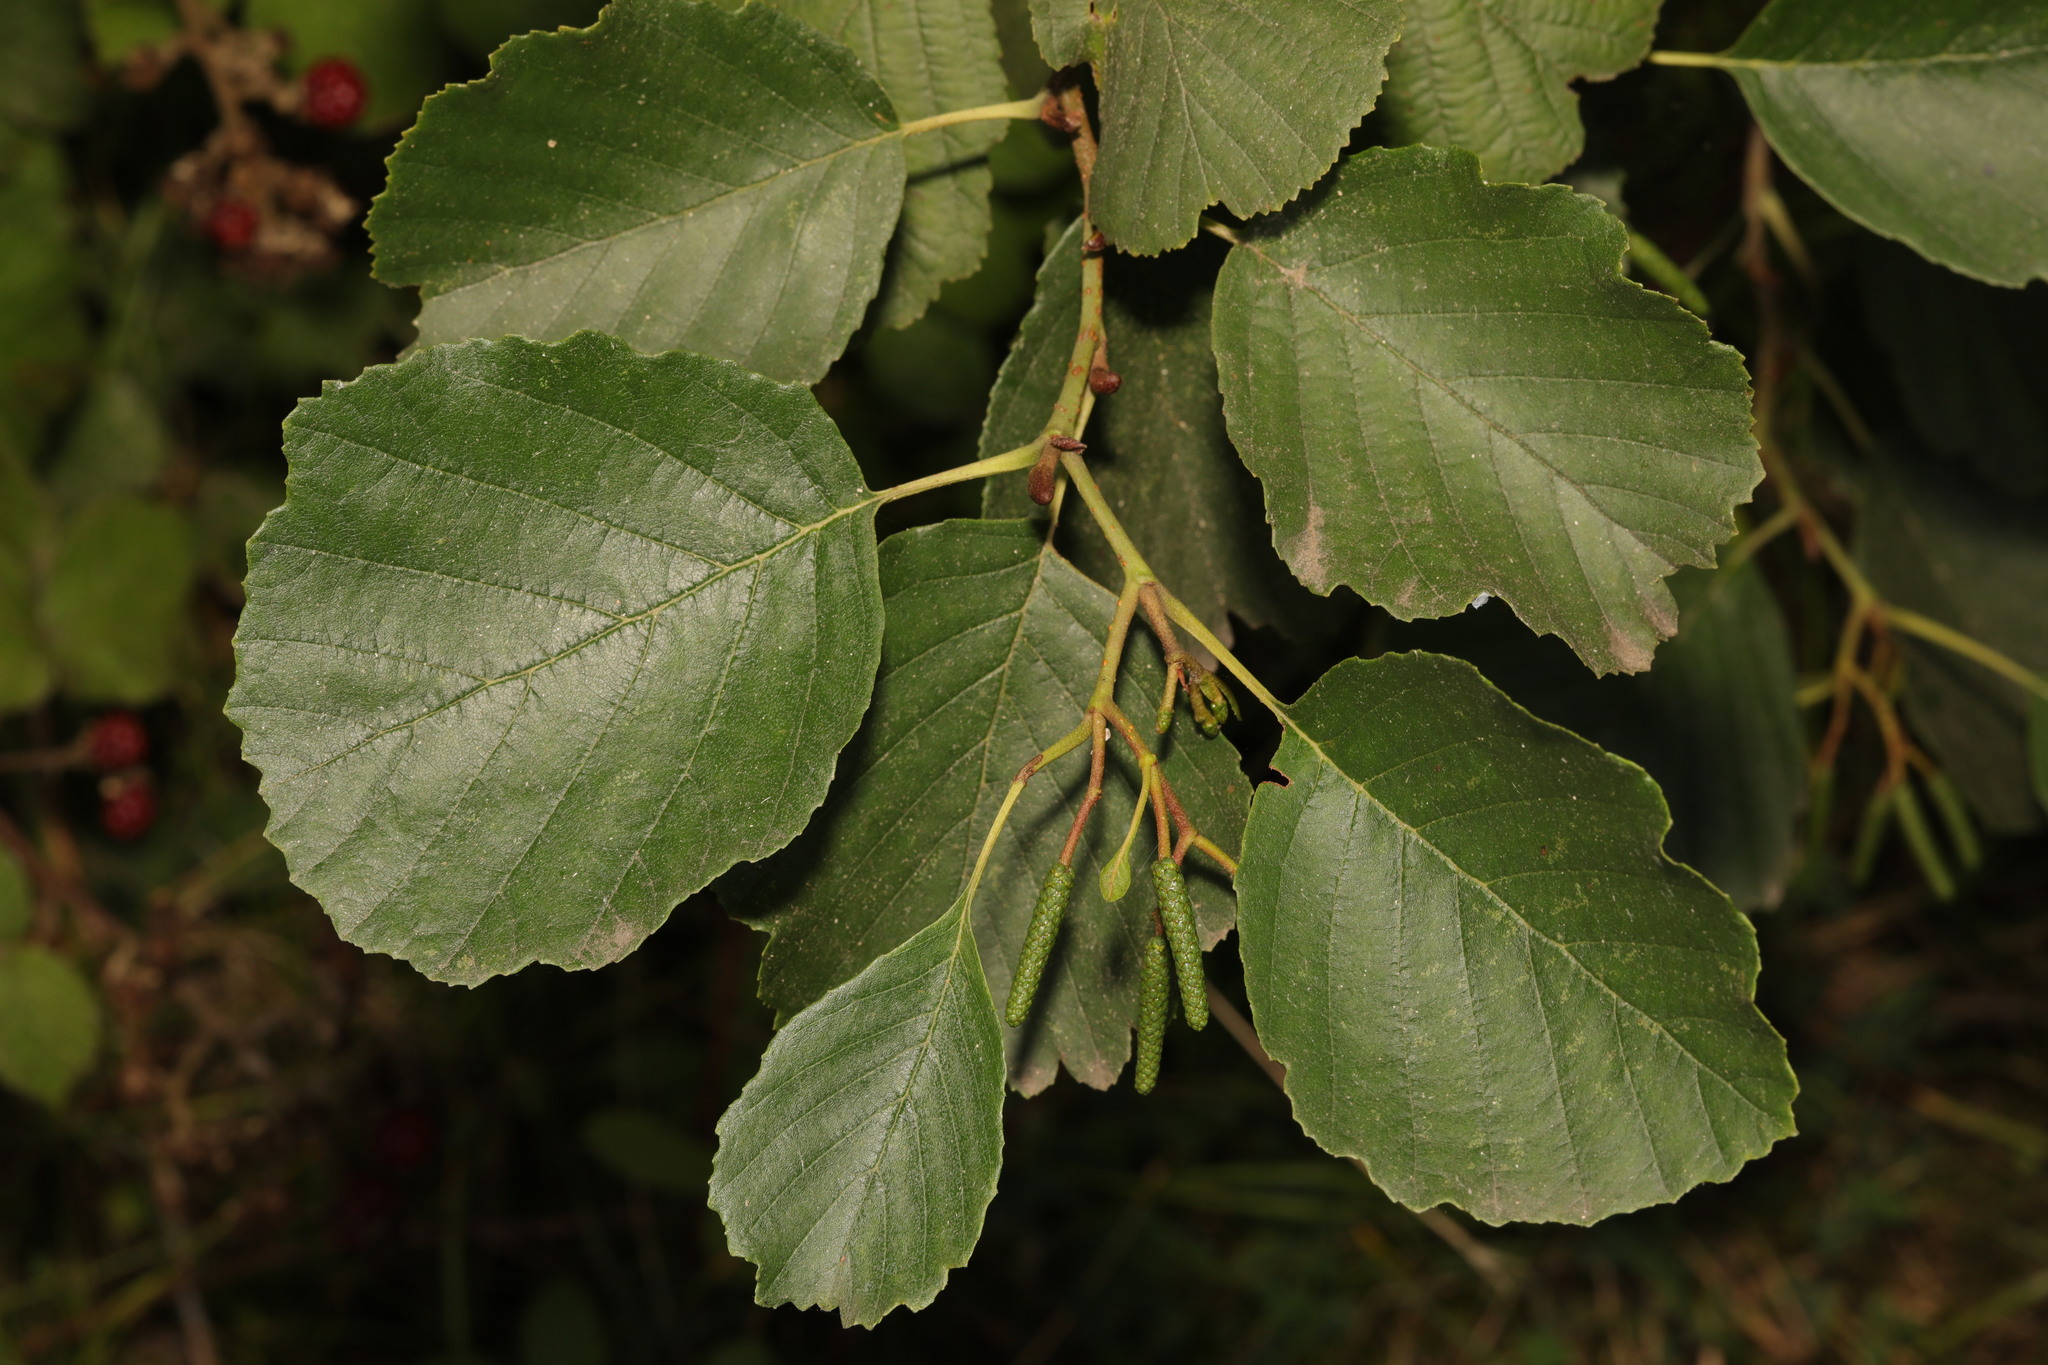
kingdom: Plantae
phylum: Tracheophyta
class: Magnoliopsida
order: Fagales
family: Betulaceae
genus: Alnus
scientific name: Alnus glutinosa
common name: Black alder
